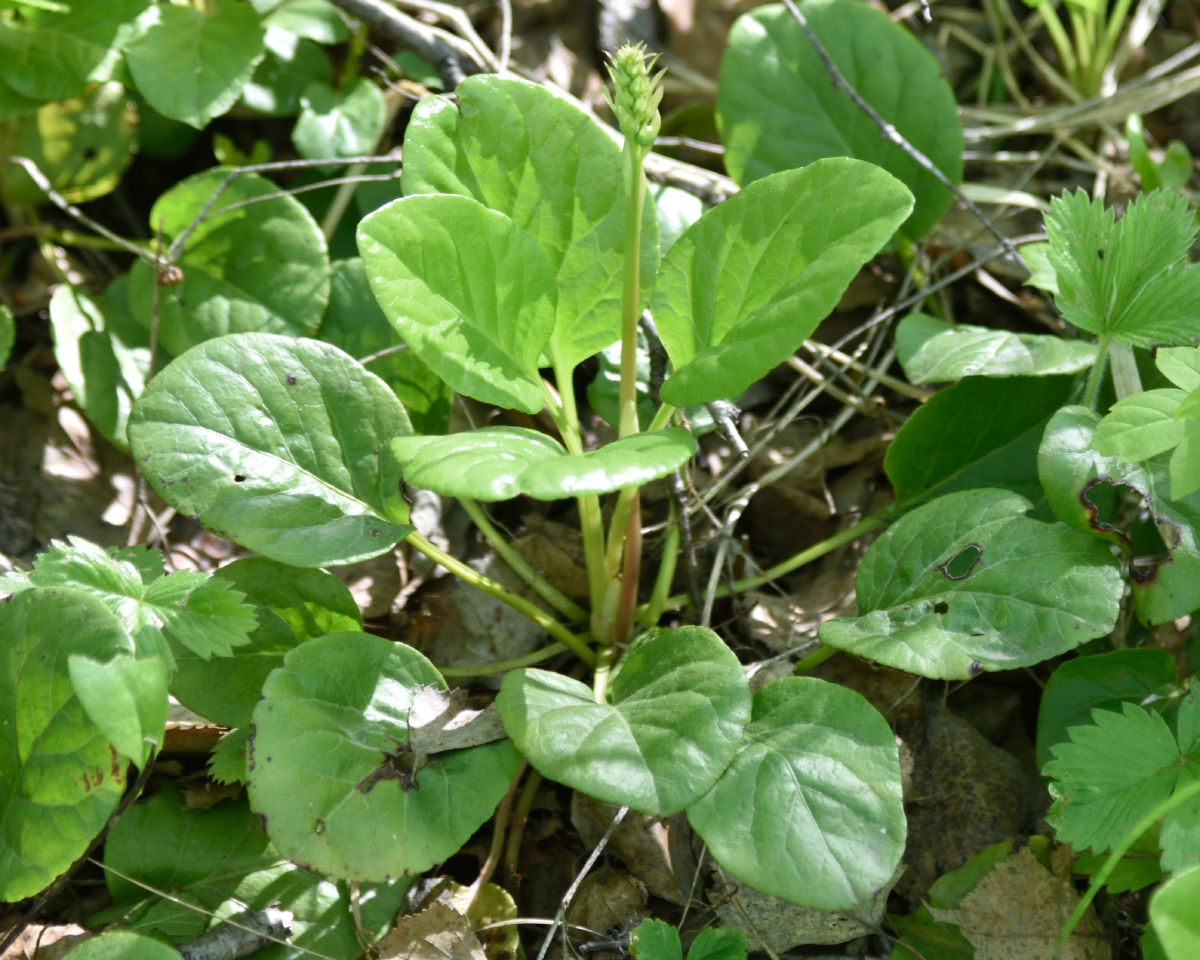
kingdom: Plantae
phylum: Tracheophyta
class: Magnoliopsida
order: Ericales
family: Ericaceae
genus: Pyrola
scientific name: Pyrola rotundifolia
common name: Round-leaved wintergreen
